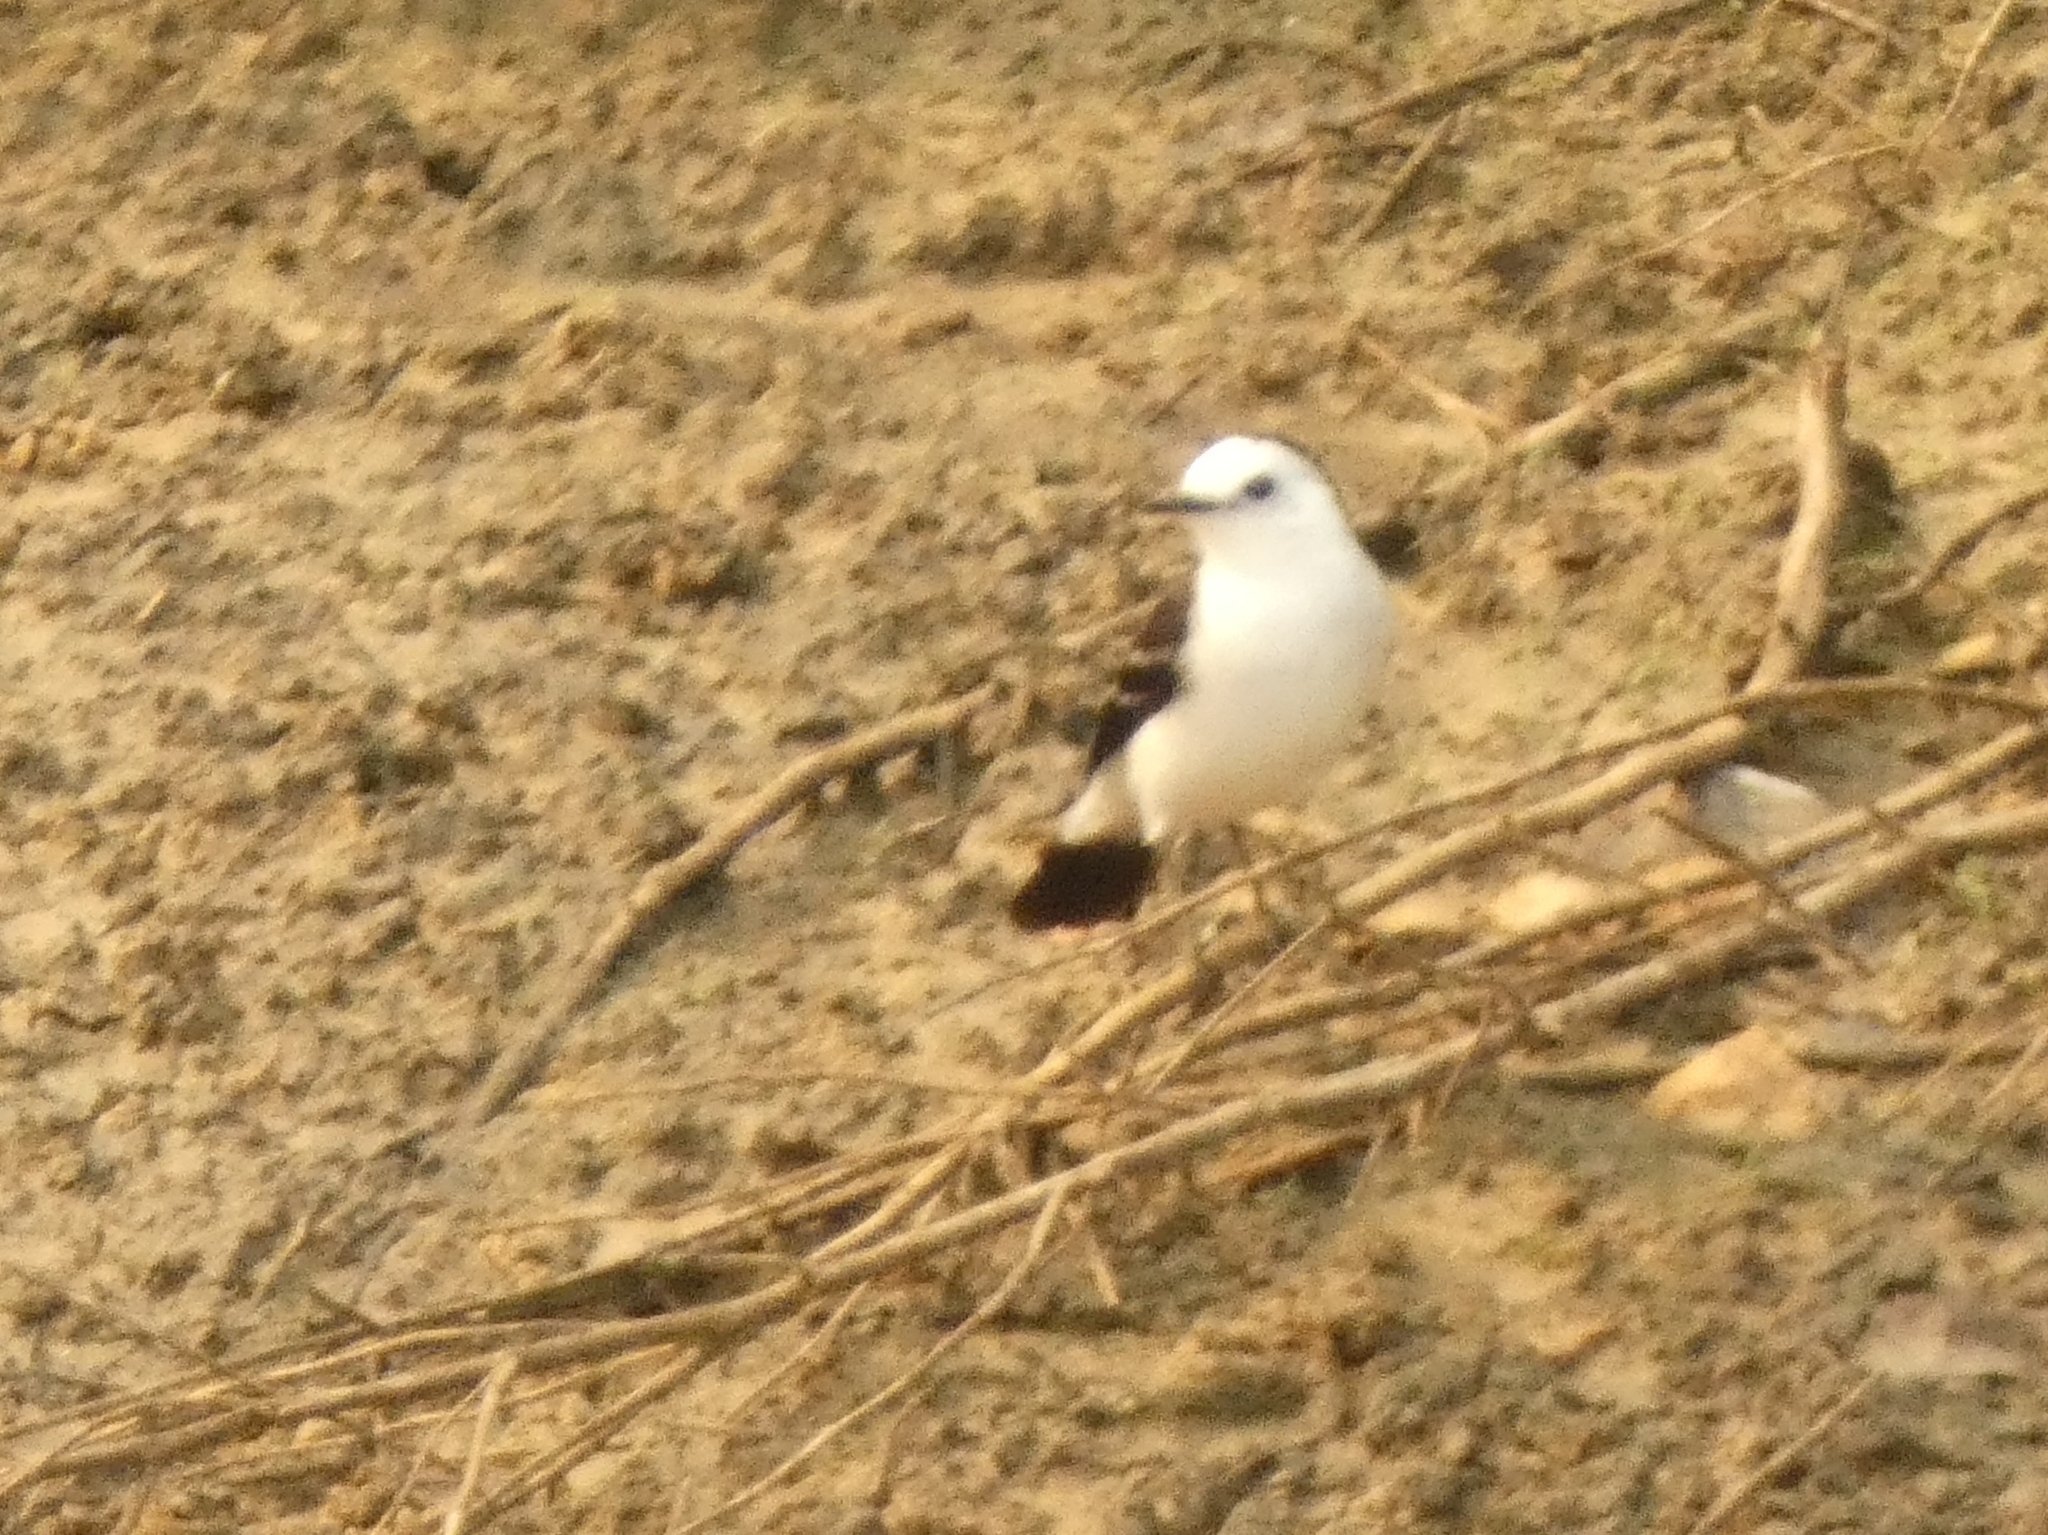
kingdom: Animalia
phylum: Chordata
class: Aves
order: Passeriformes
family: Tyrannidae
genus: Fluvicola
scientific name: Fluvicola pica
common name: Pied water-tyrant
